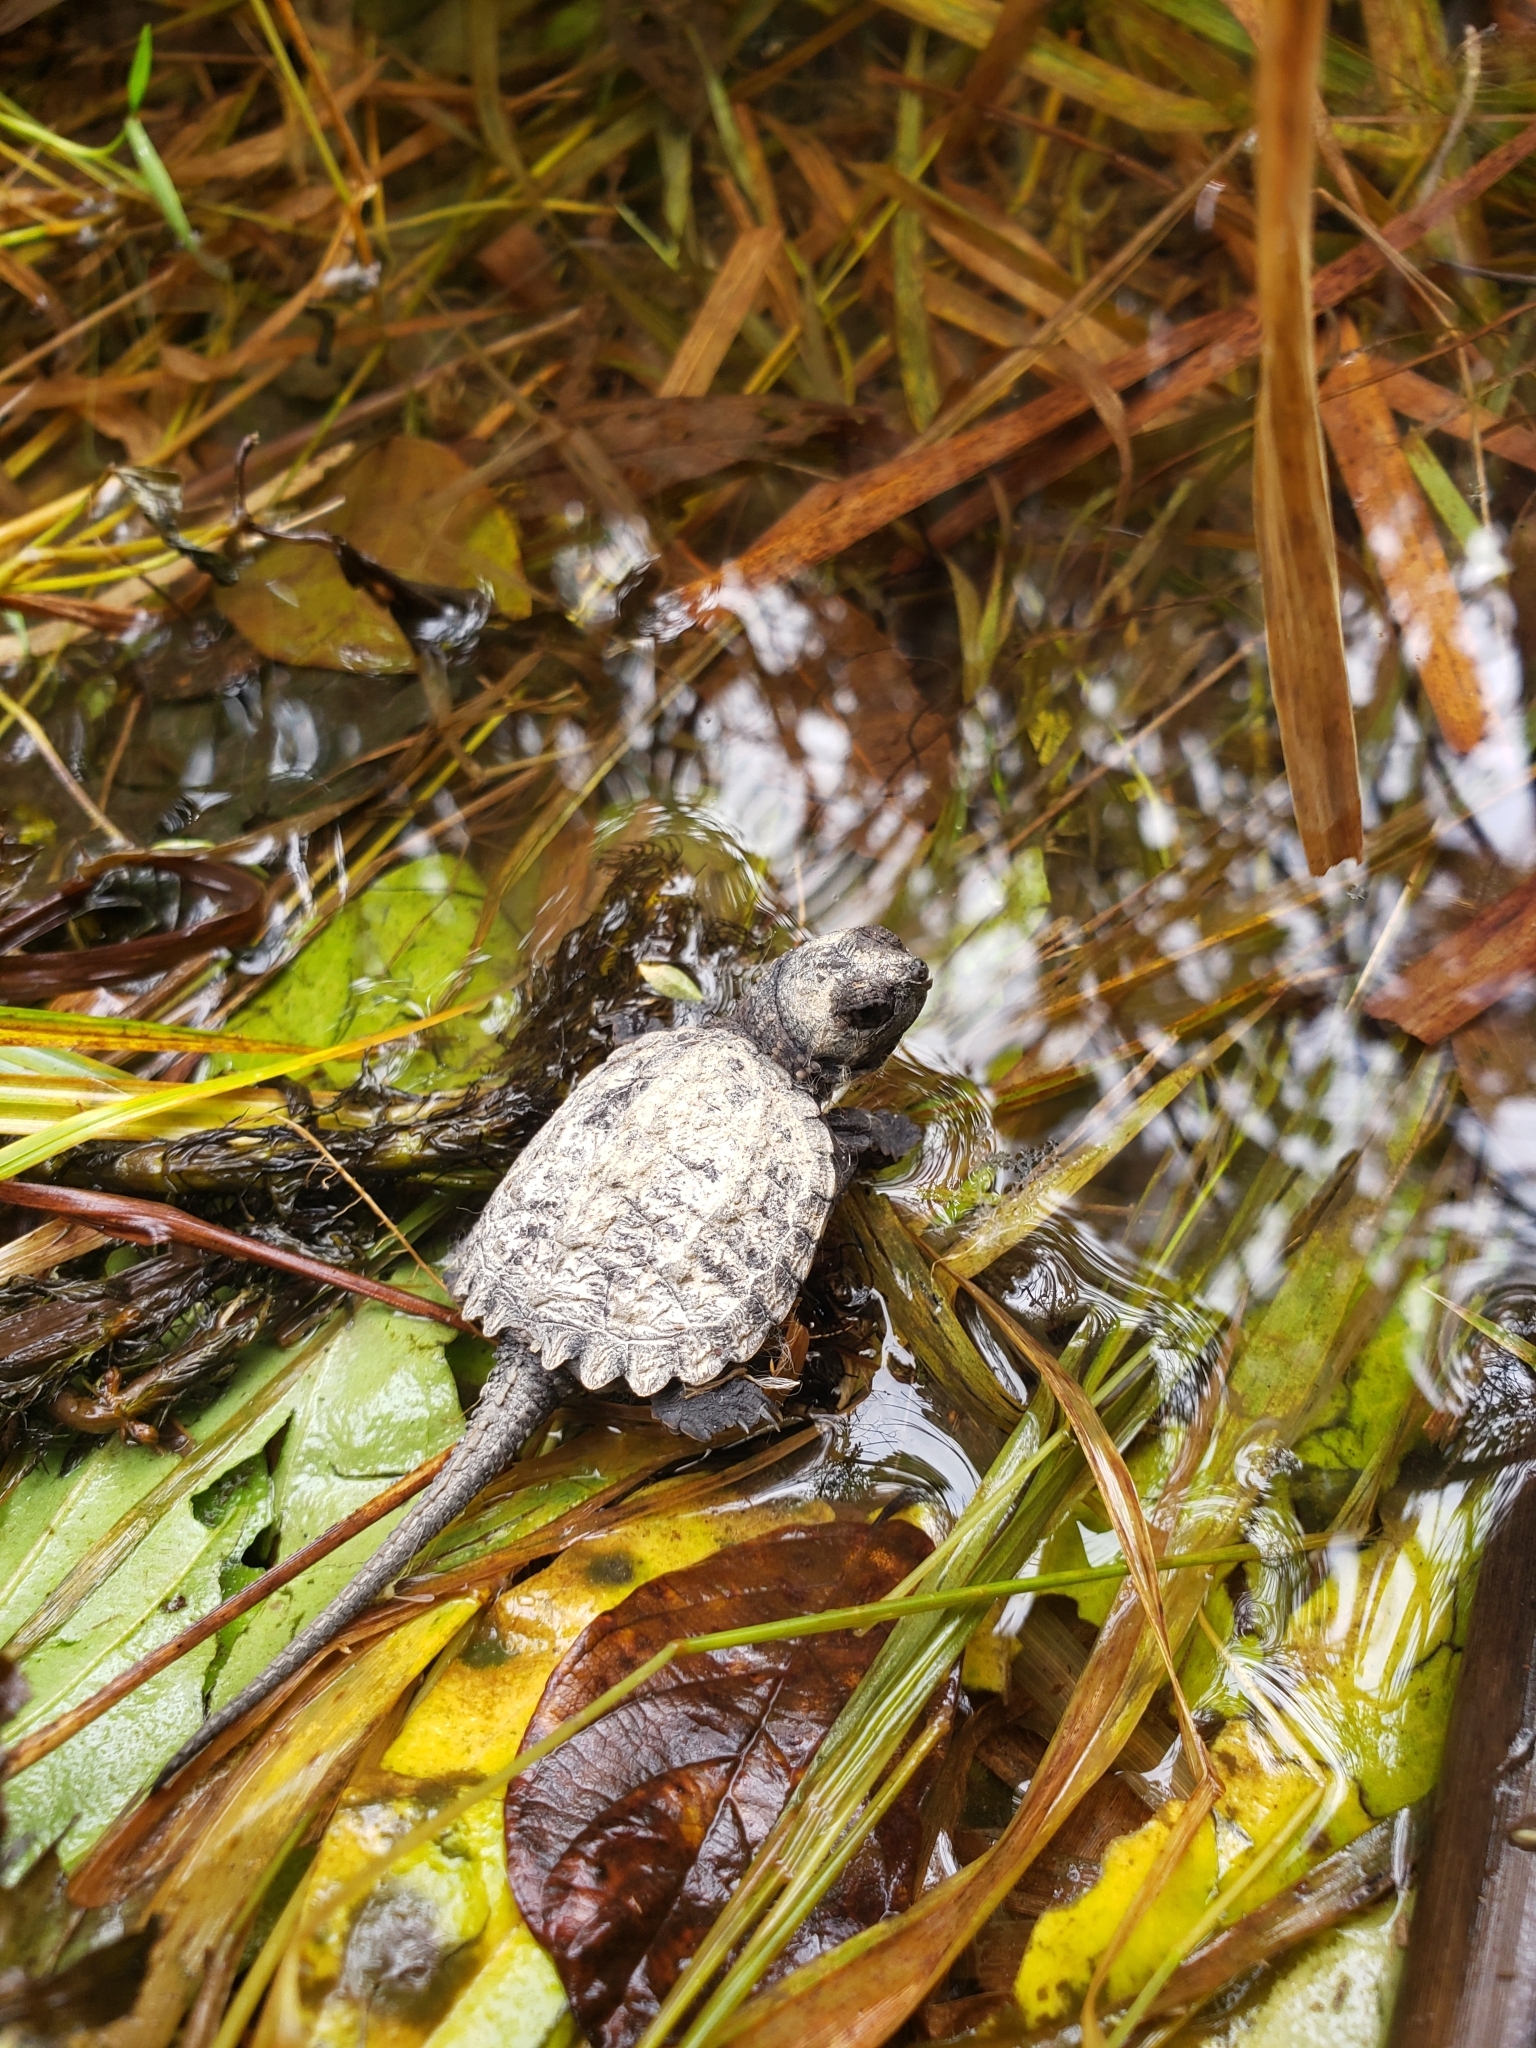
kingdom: Animalia
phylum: Chordata
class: Testudines
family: Chelydridae
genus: Chelydra
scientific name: Chelydra serpentina
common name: Common snapping turtle
